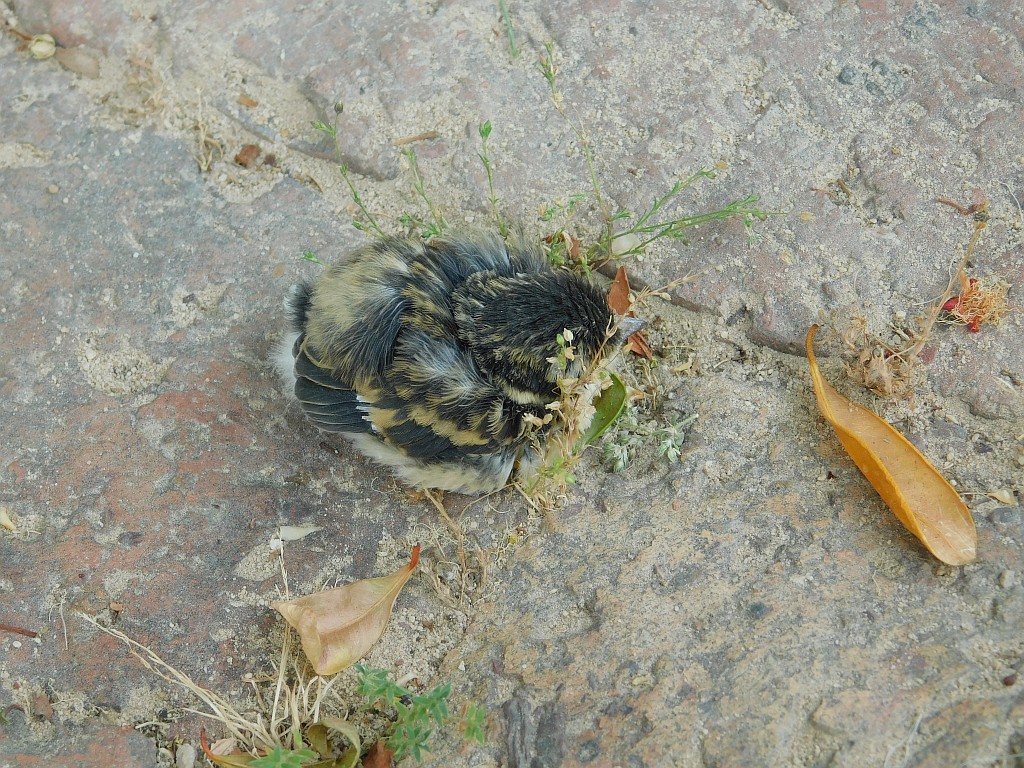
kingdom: Animalia
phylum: Chordata
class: Aves
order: Passeriformes
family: Platysteiridae
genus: Batis
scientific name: Batis capensis
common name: Cape batis
